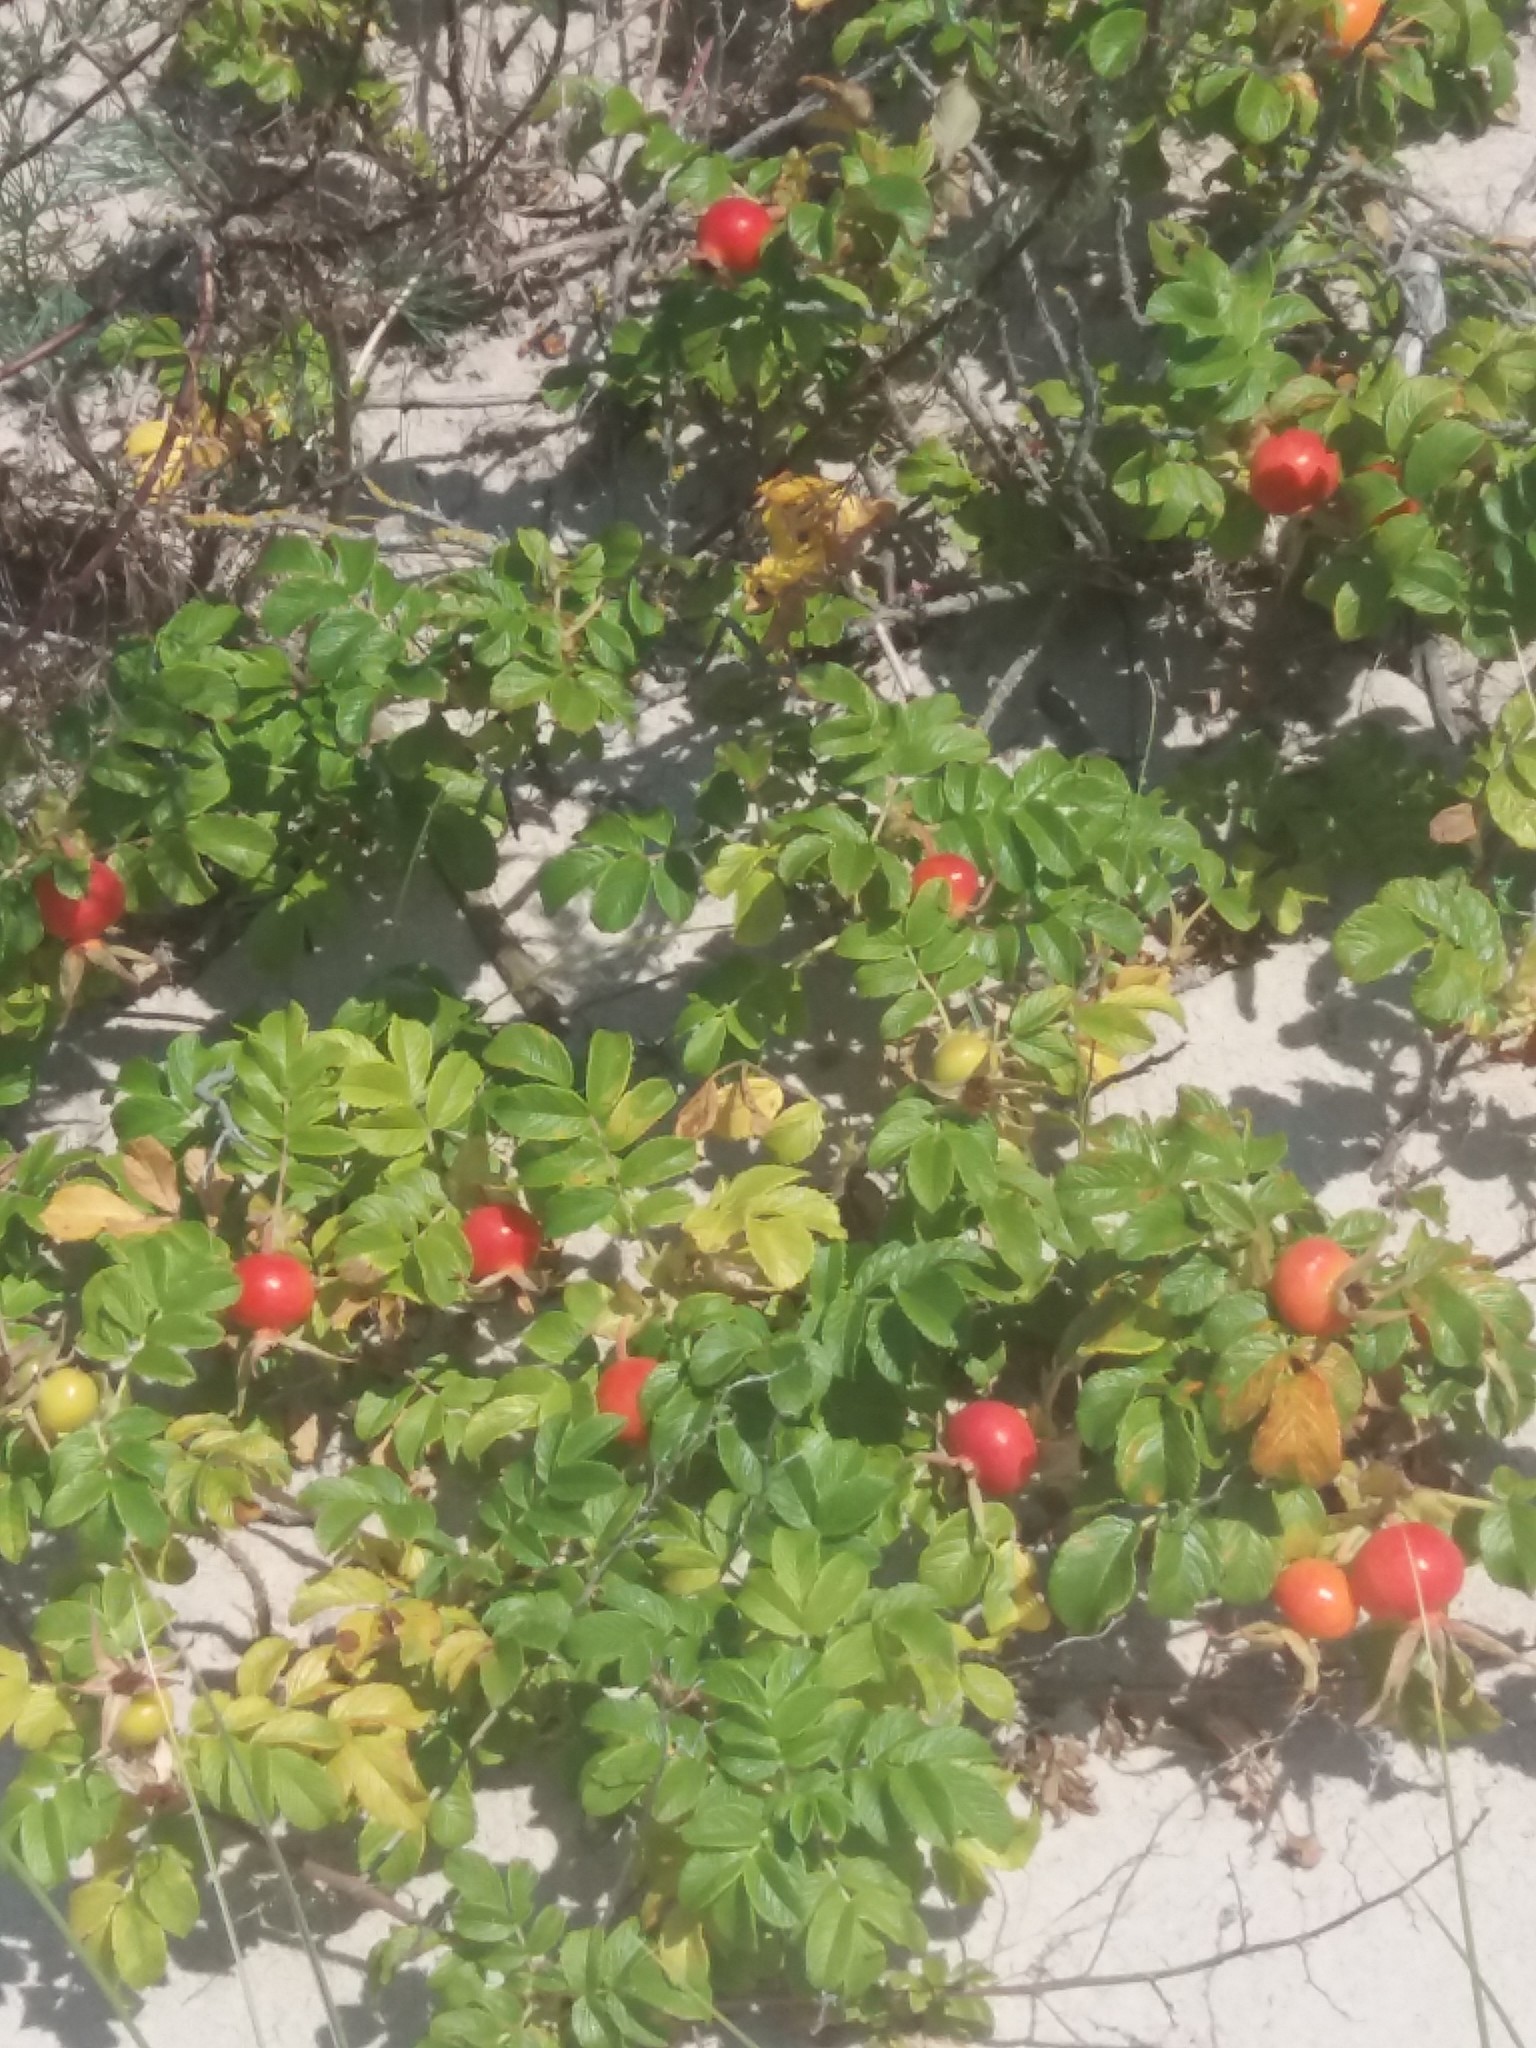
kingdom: Plantae
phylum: Tracheophyta
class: Magnoliopsida
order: Rosales
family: Rosaceae
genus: Rosa
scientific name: Rosa rugosa
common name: Japanese rose
